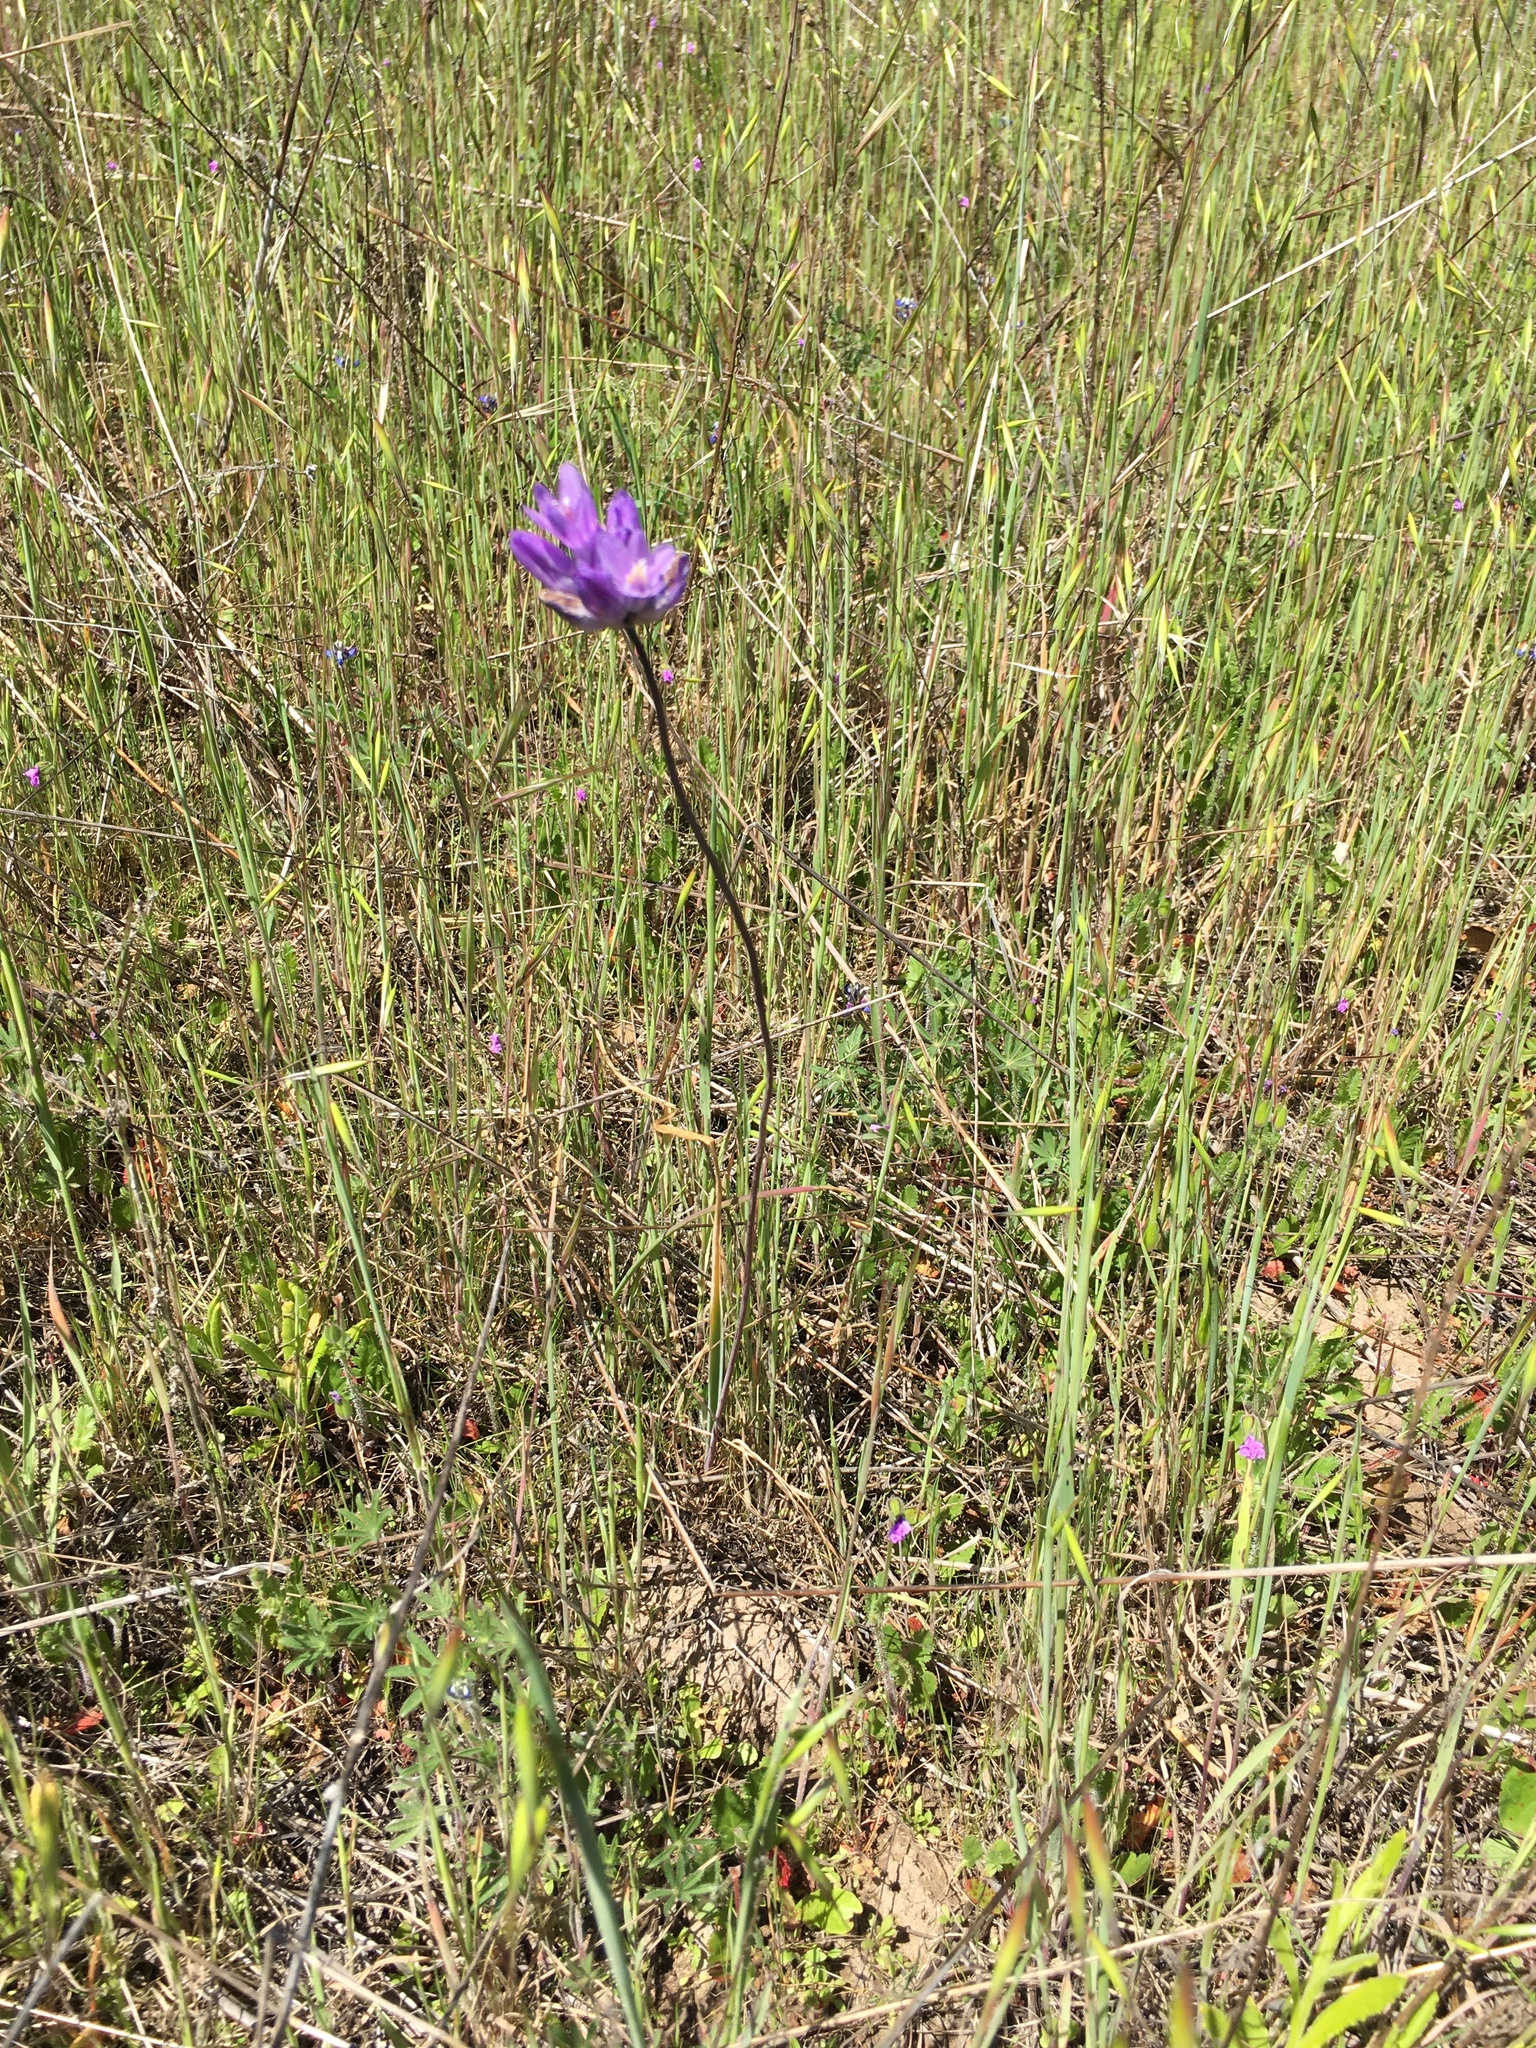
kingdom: Plantae
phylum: Tracheophyta
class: Liliopsida
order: Asparagales
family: Asparagaceae
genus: Dipterostemon
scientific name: Dipterostemon capitatus
